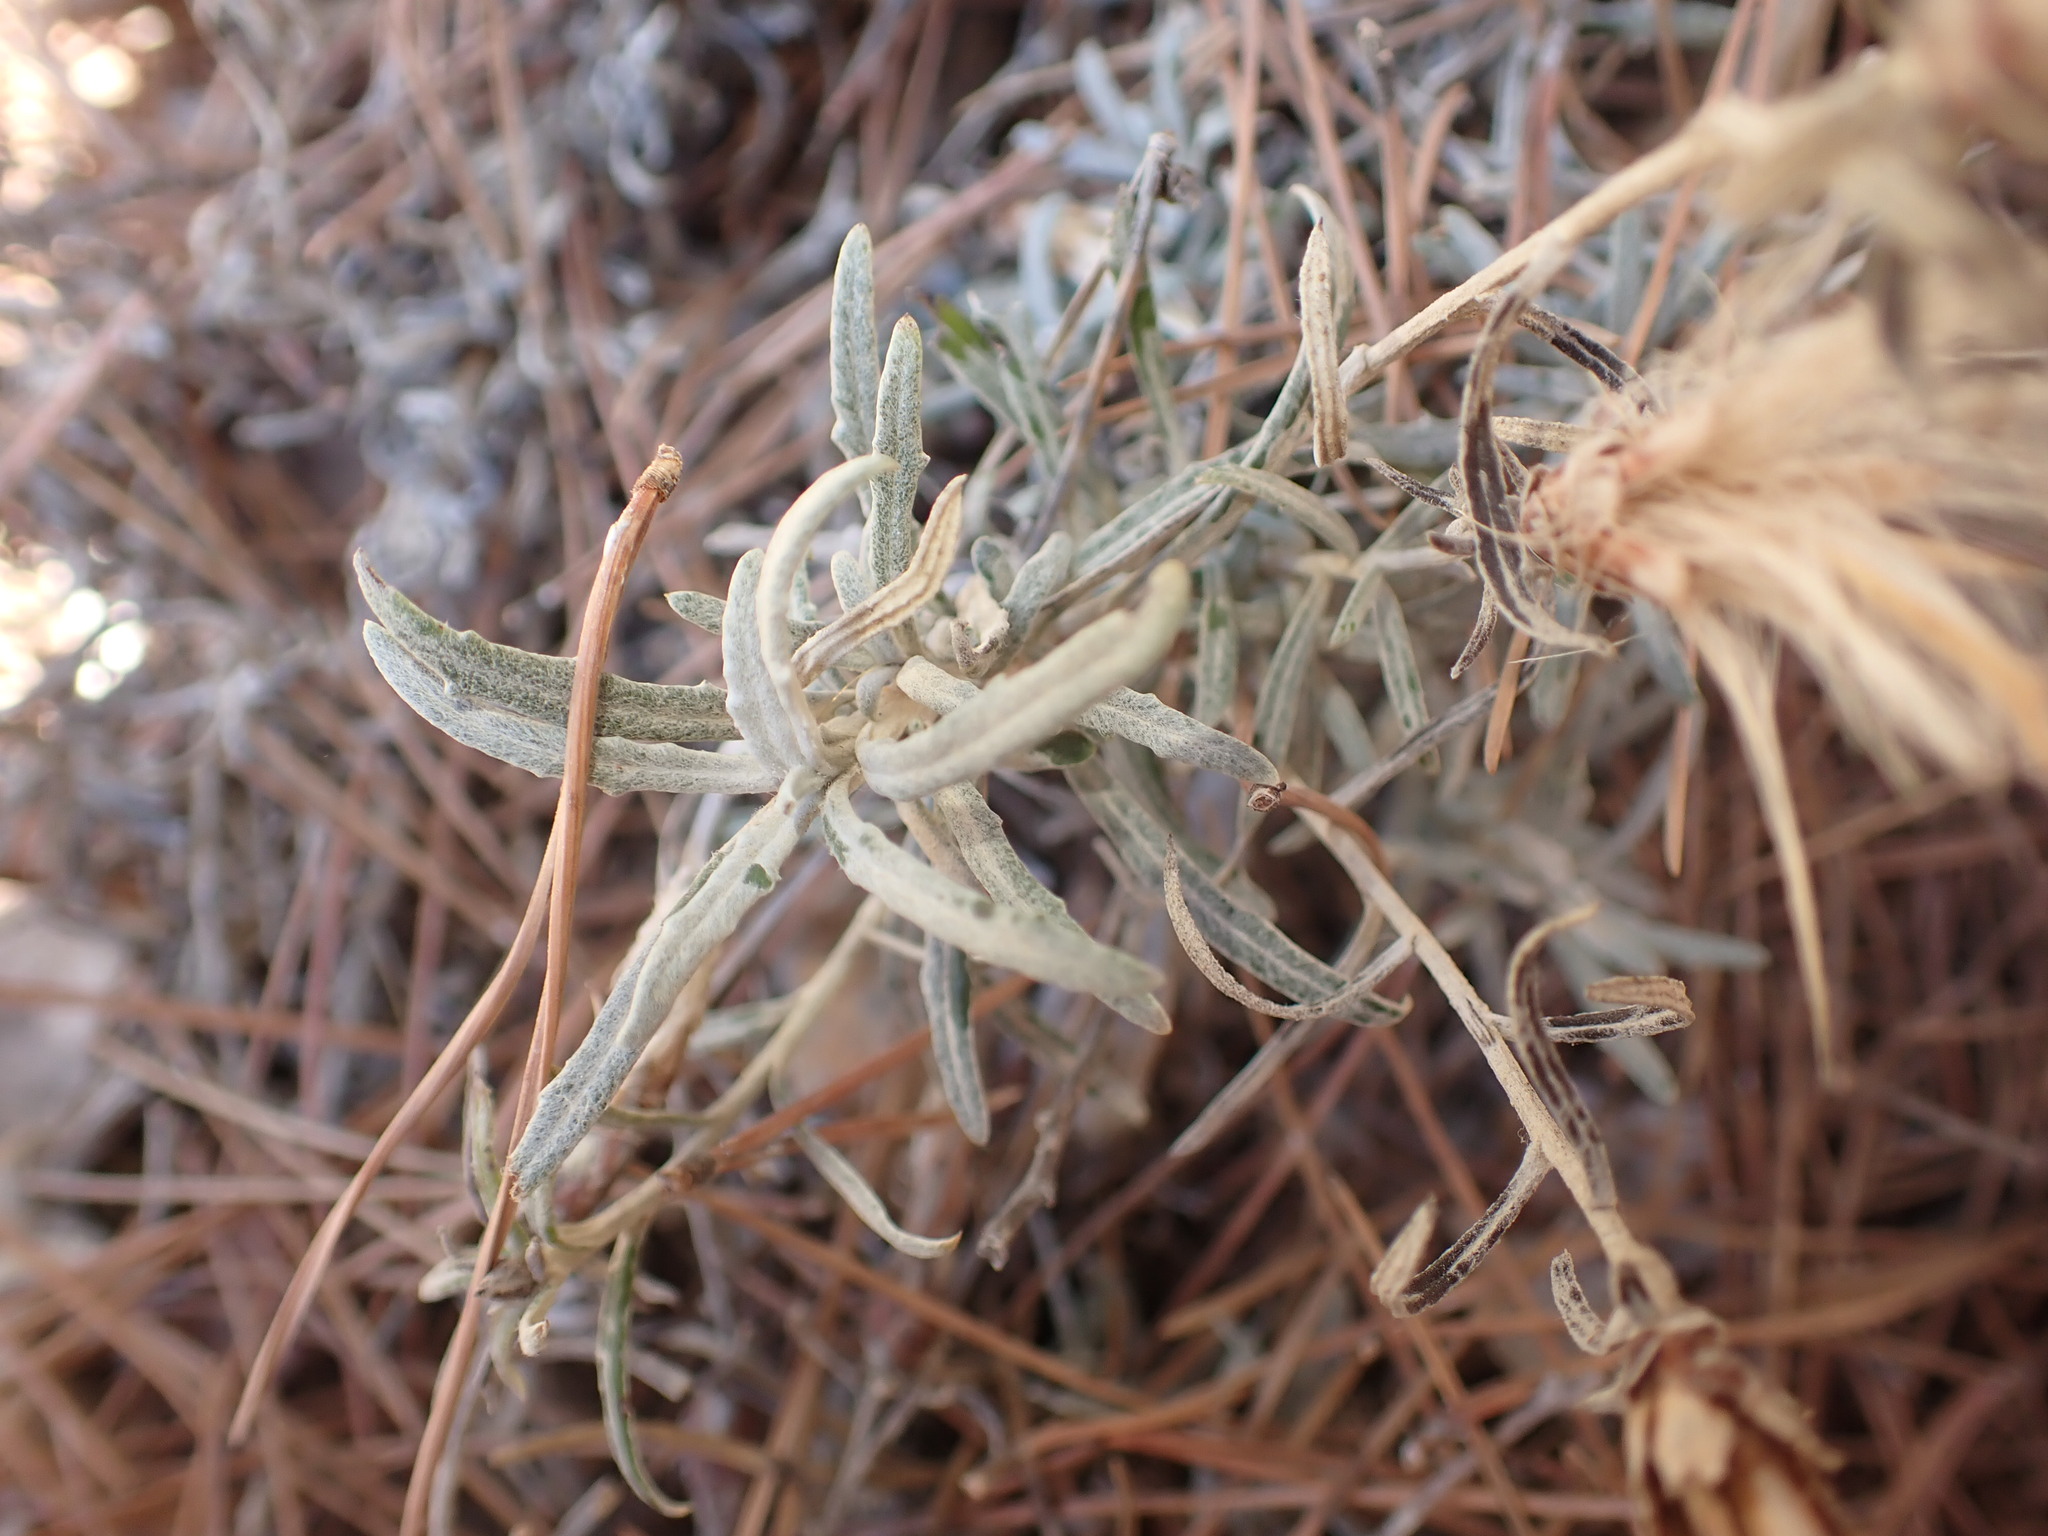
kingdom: Plantae
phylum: Tracheophyta
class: Magnoliopsida
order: Asterales
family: Asteraceae
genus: Staehelina
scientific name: Staehelina dubia
